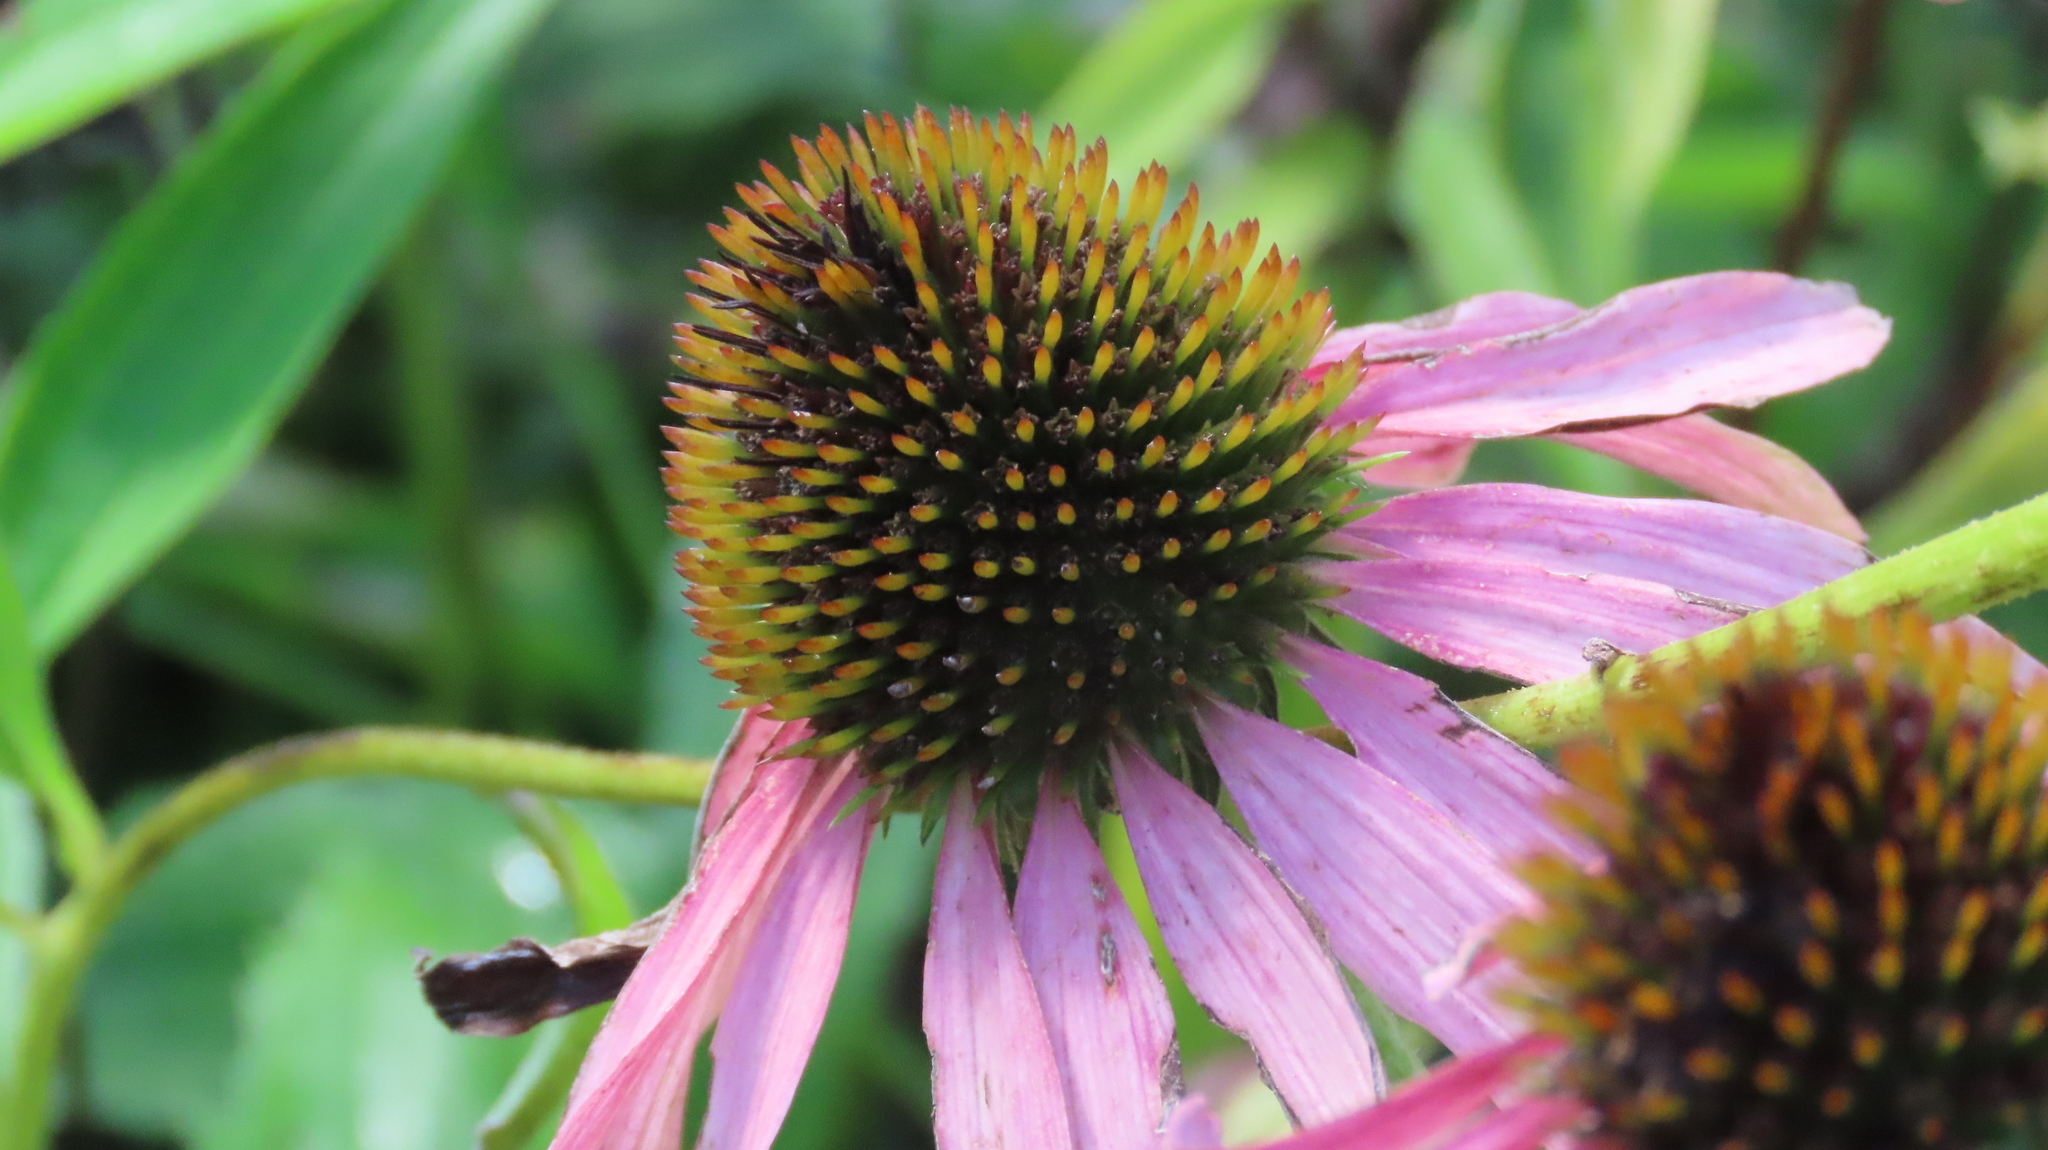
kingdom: Plantae
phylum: Tracheophyta
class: Magnoliopsida
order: Asterales
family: Asteraceae
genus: Echinacea
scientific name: Echinacea purpurea
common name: Broad-leaved purple coneflower
